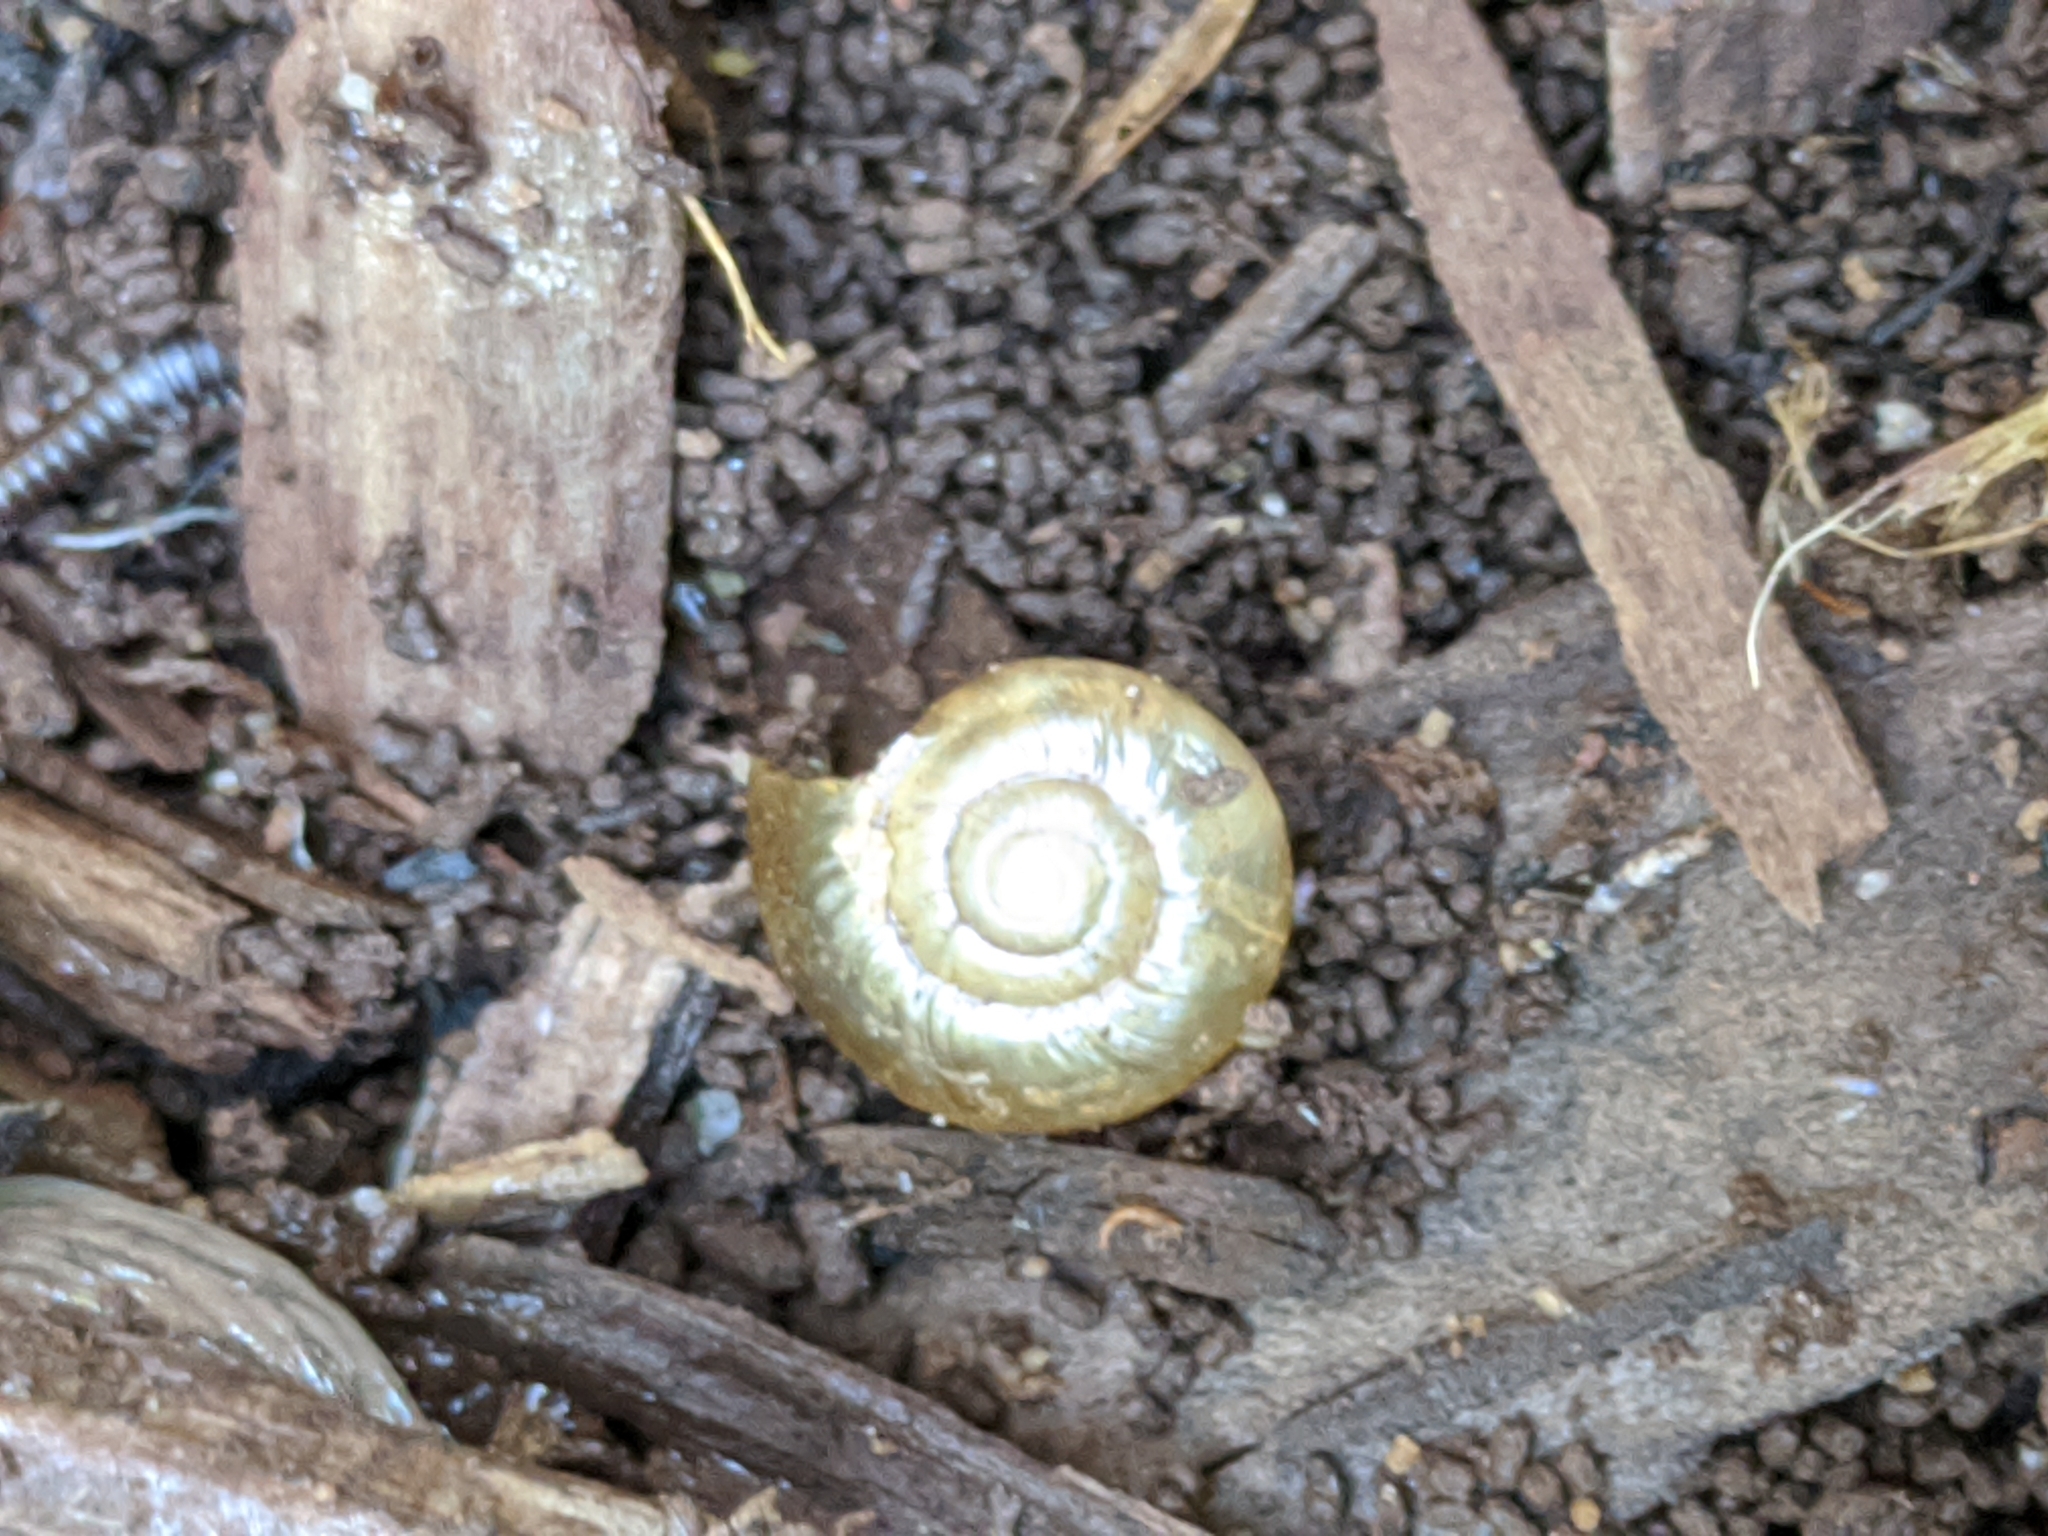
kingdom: Animalia
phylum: Mollusca
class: Gastropoda
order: Stylommatophora
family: Oxychilidae
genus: Oxychilus
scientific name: Oxychilus
